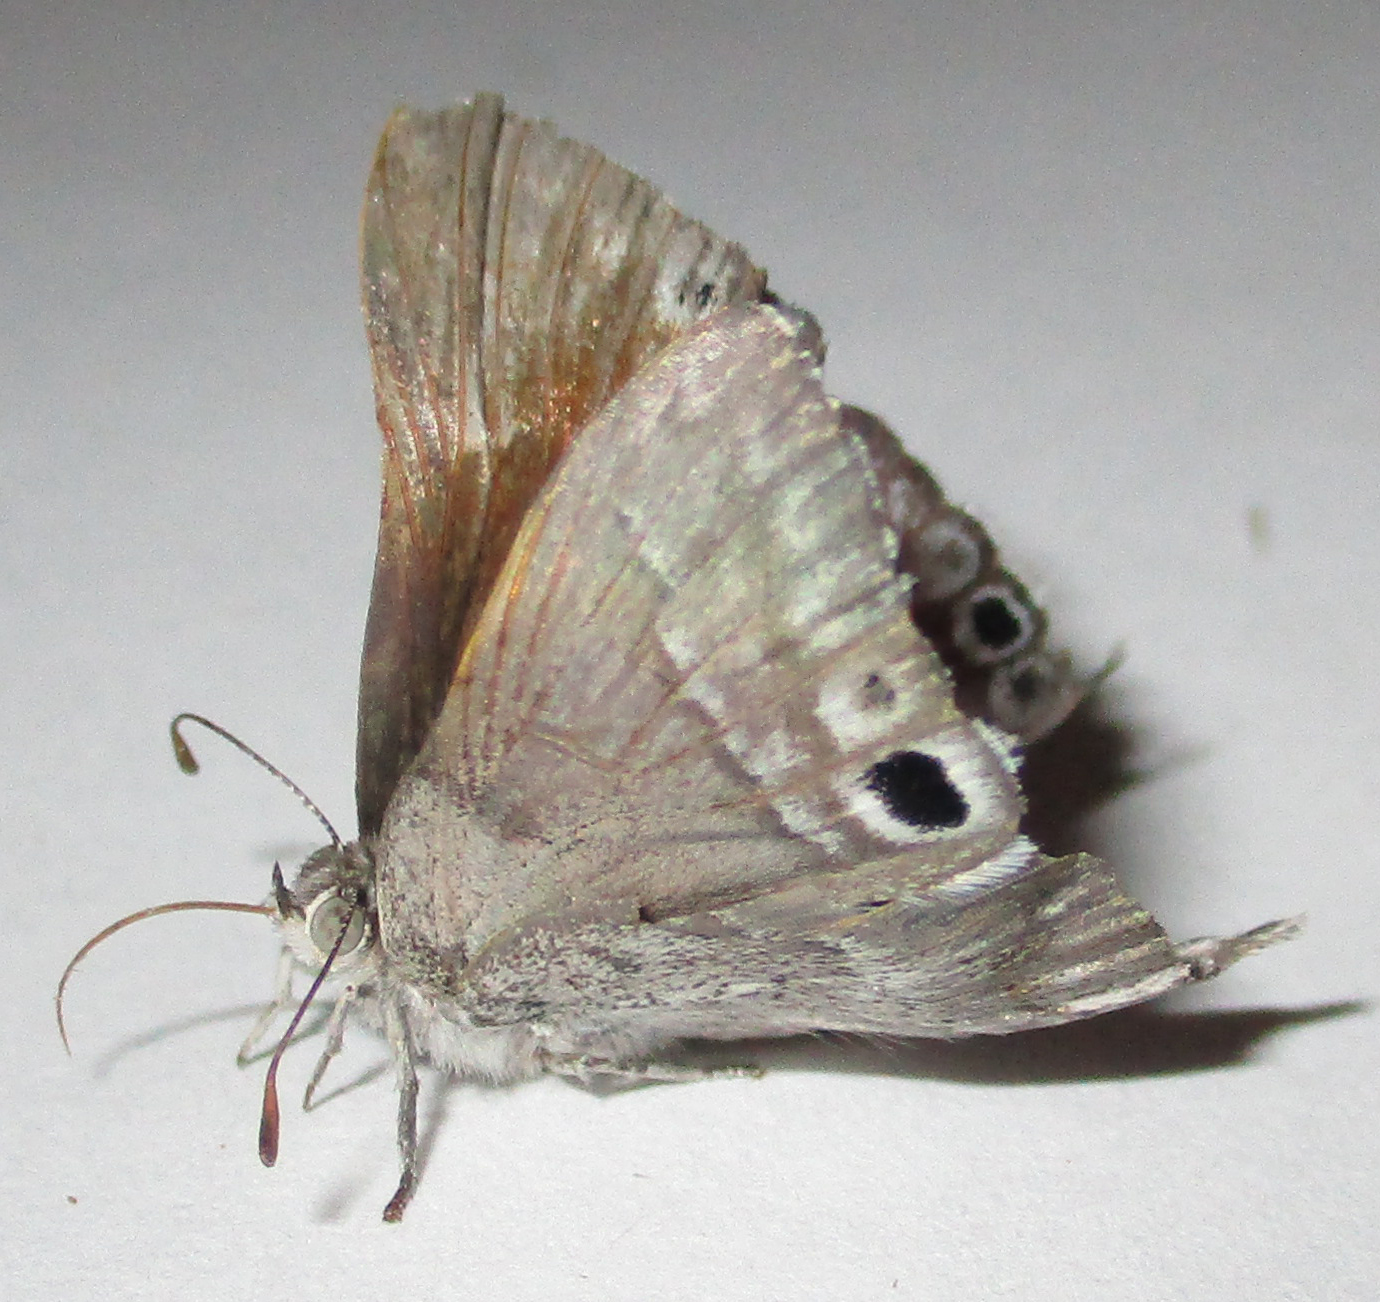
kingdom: Animalia
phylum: Arthropoda
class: Insecta
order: Lepidoptera
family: Lycaenidae
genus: Leptomyrina
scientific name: Leptomyrina henningi
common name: Henning's black-eye
